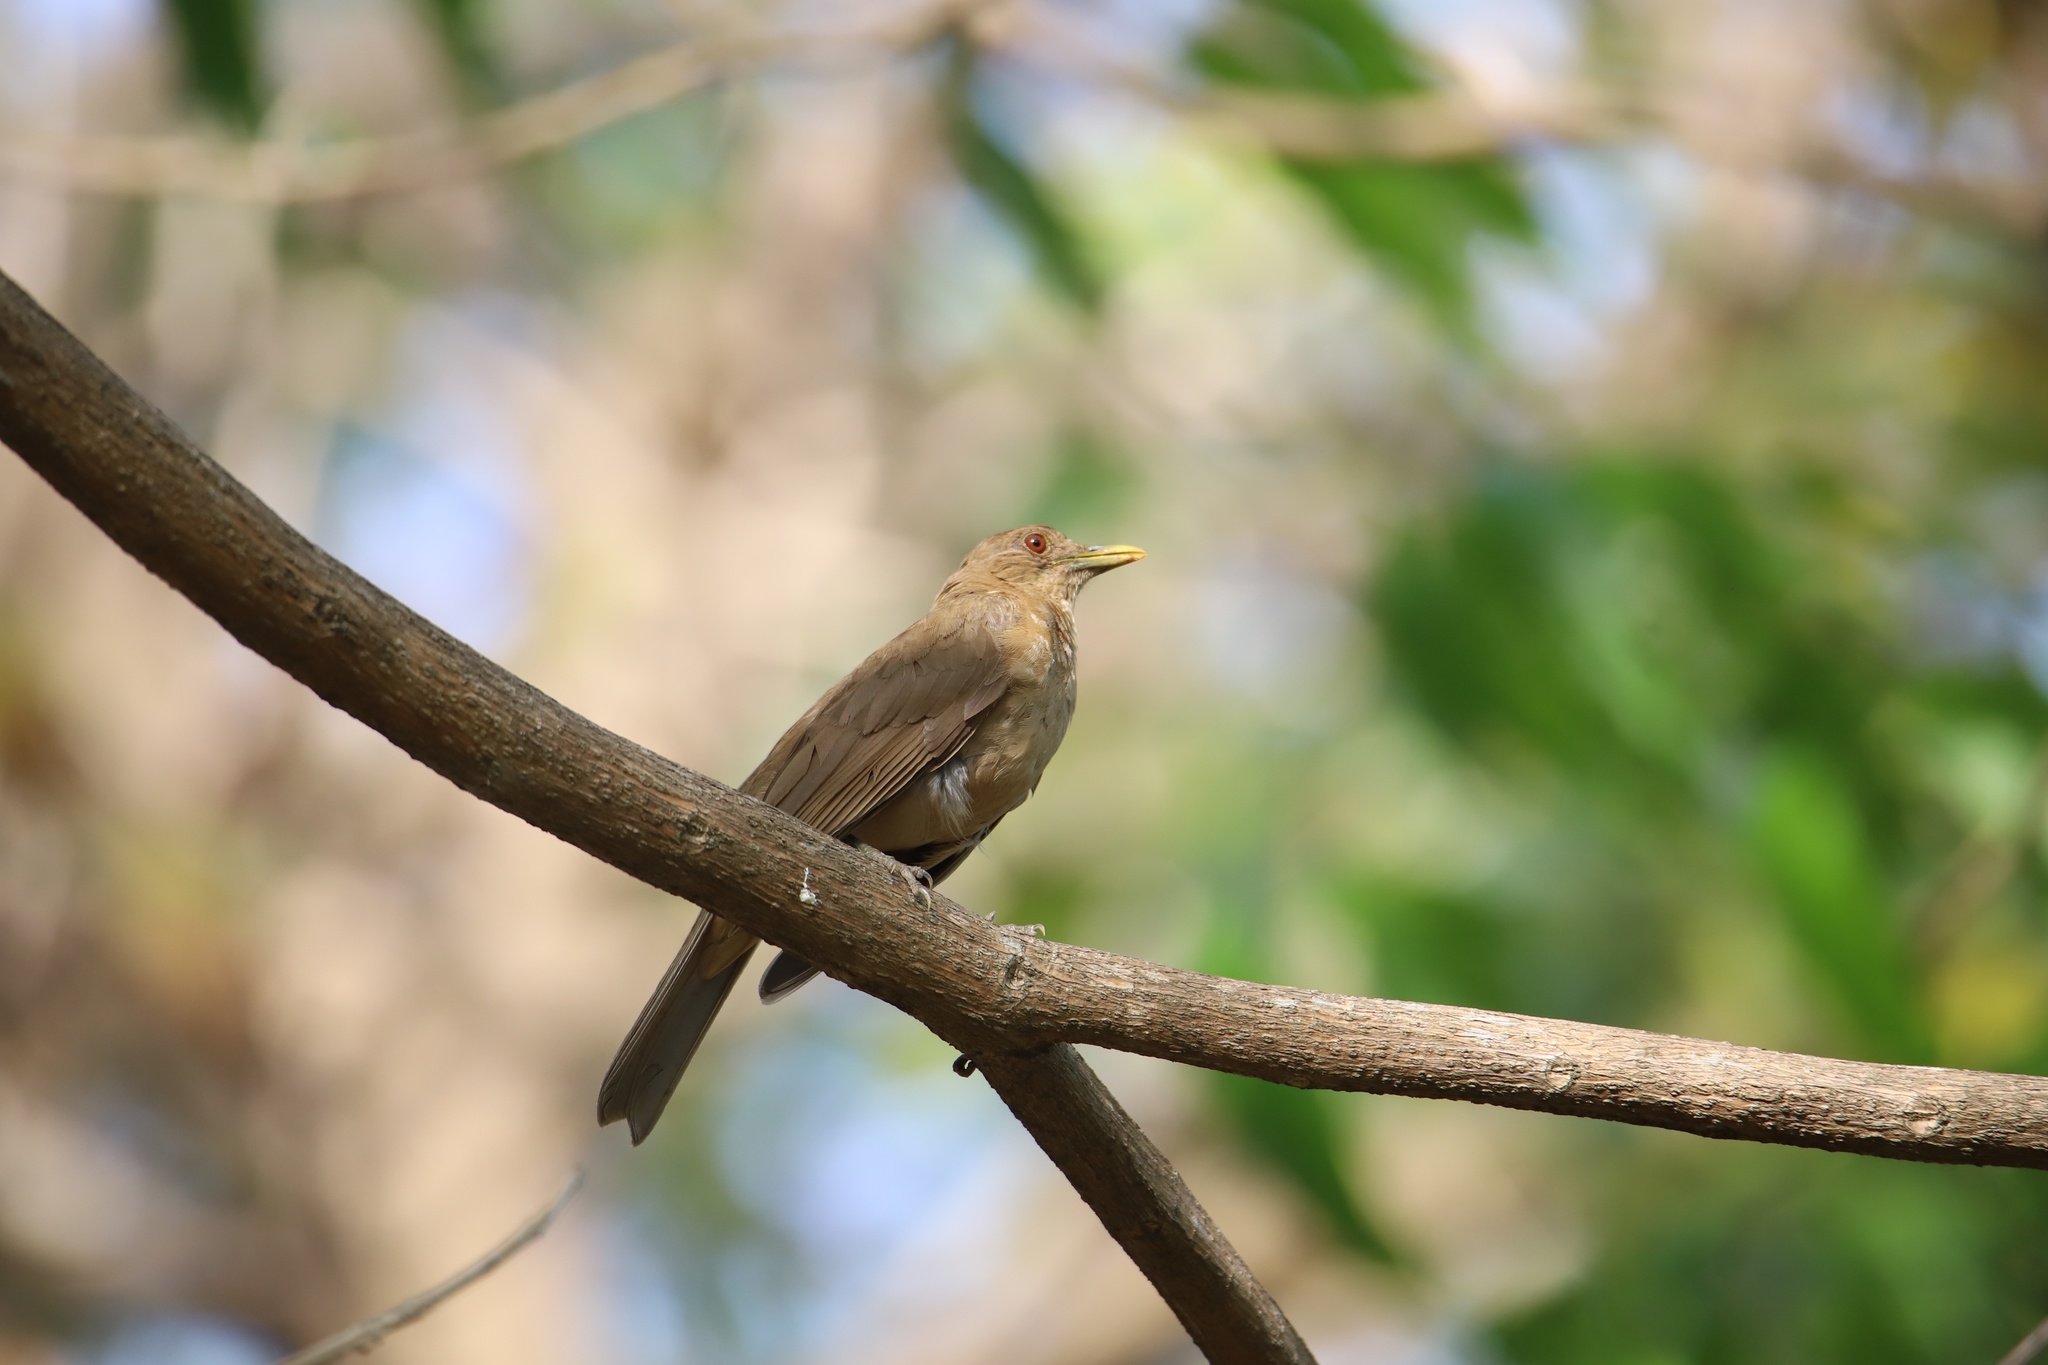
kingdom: Animalia
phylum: Chordata
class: Aves
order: Passeriformes
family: Turdidae
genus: Turdus
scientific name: Turdus grayi
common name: Clay-colored thrush
